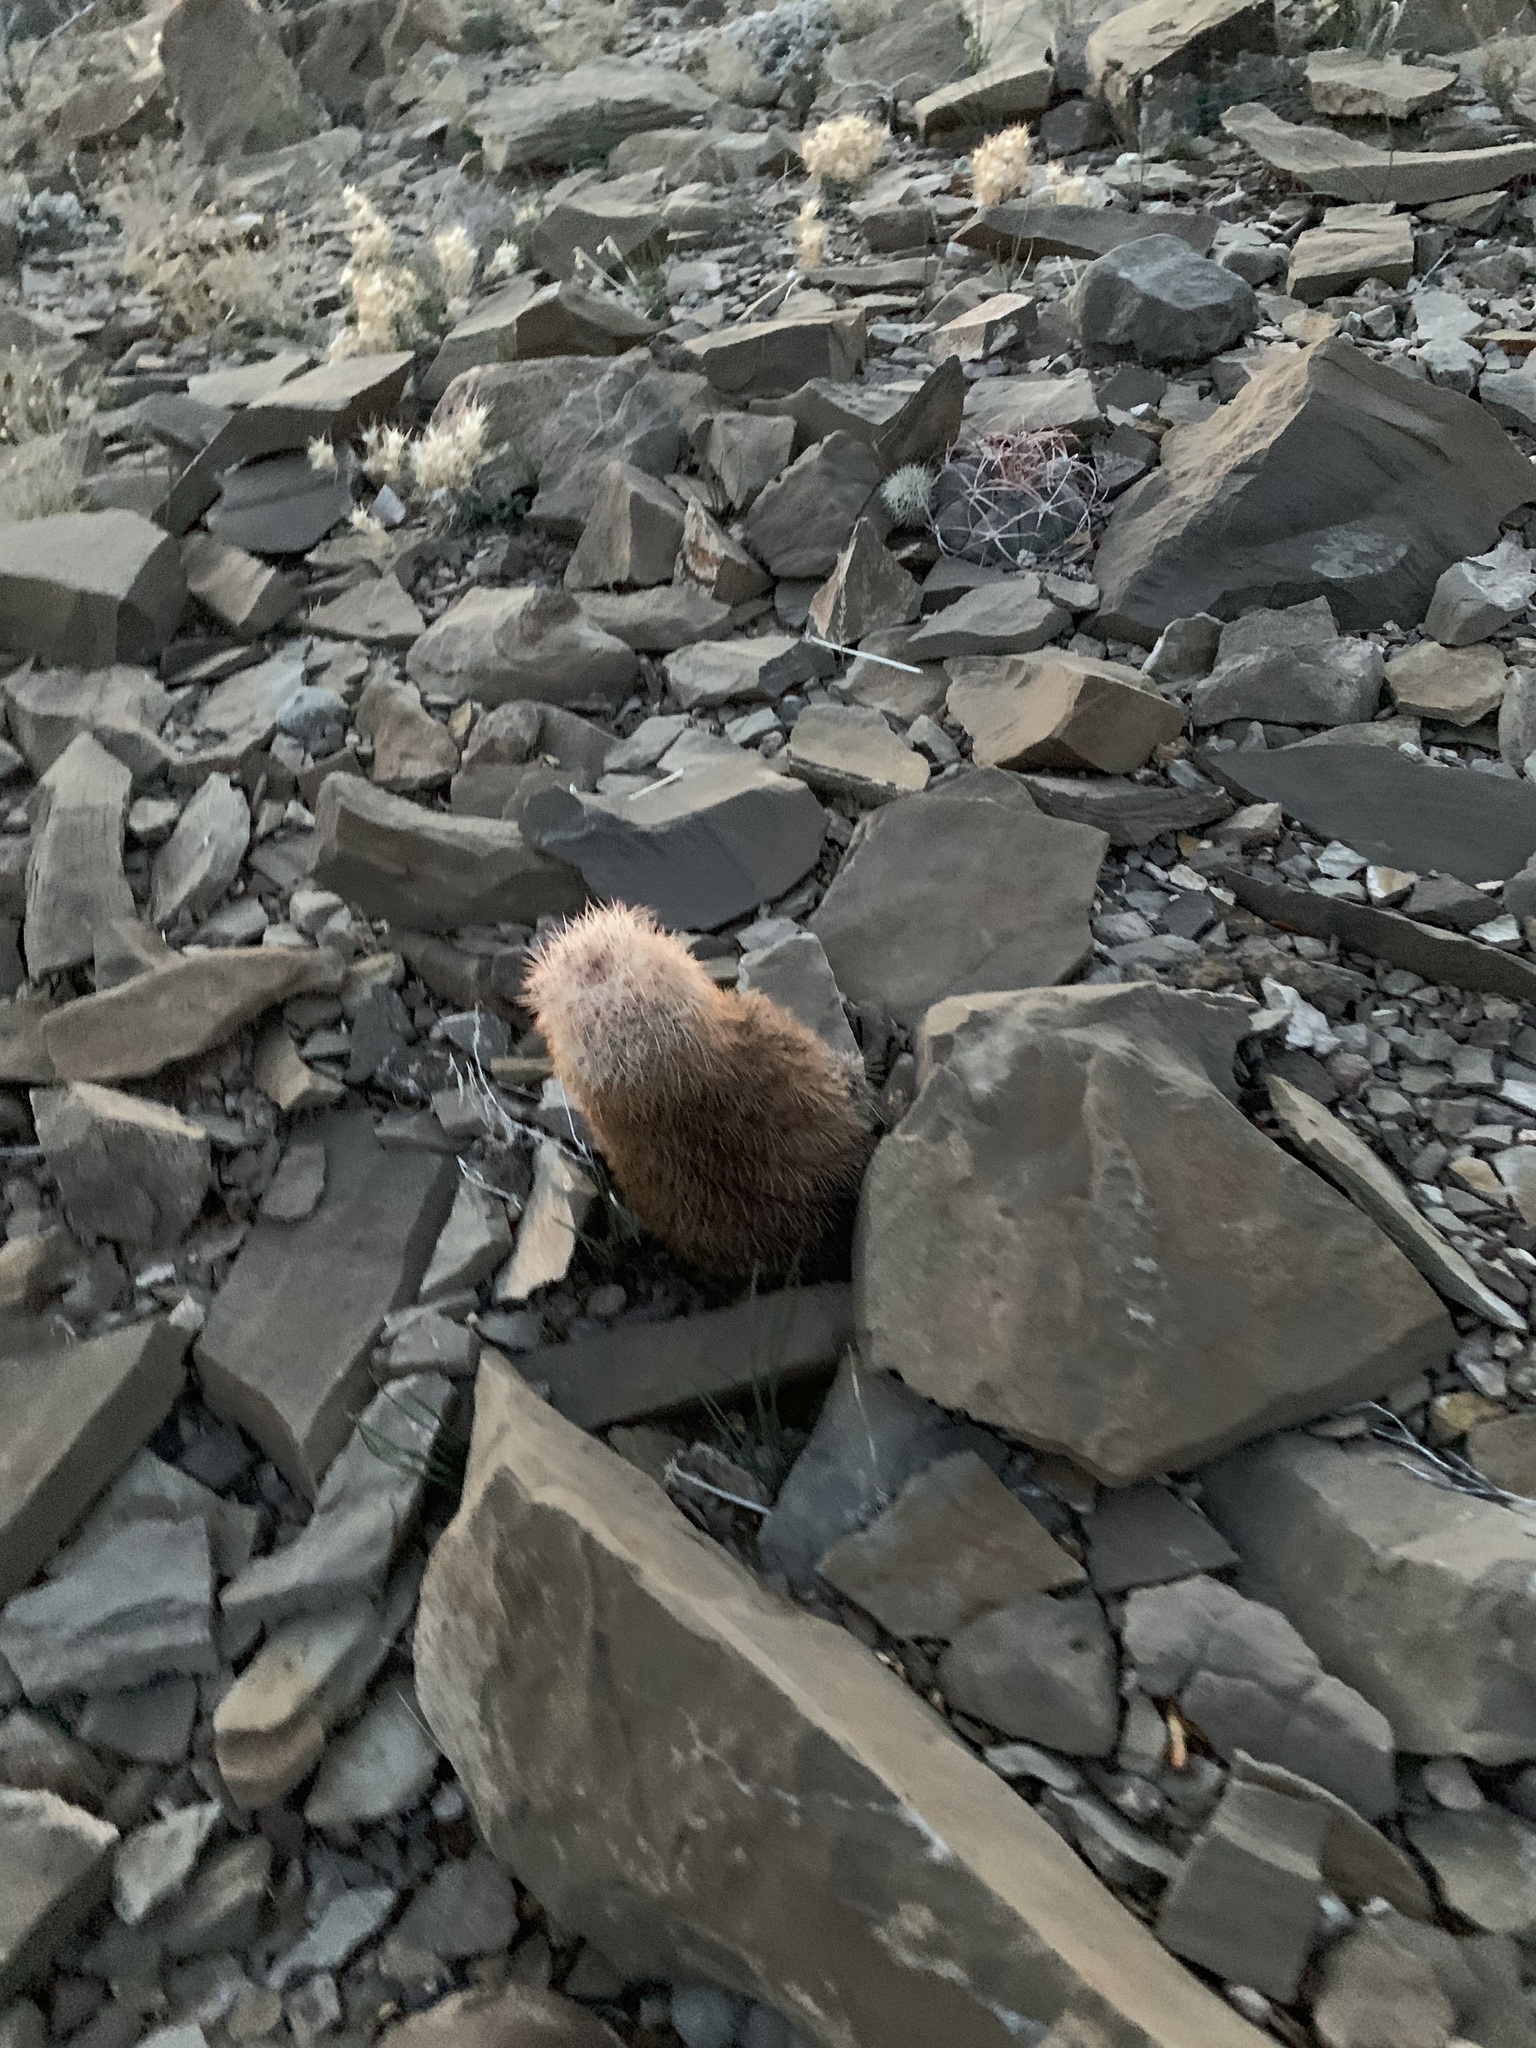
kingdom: Plantae
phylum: Tracheophyta
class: Magnoliopsida
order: Caryophyllales
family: Cactaceae
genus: Echinocereus
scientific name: Echinocereus dasyacanthus
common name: Spiny hedgehog cactus
